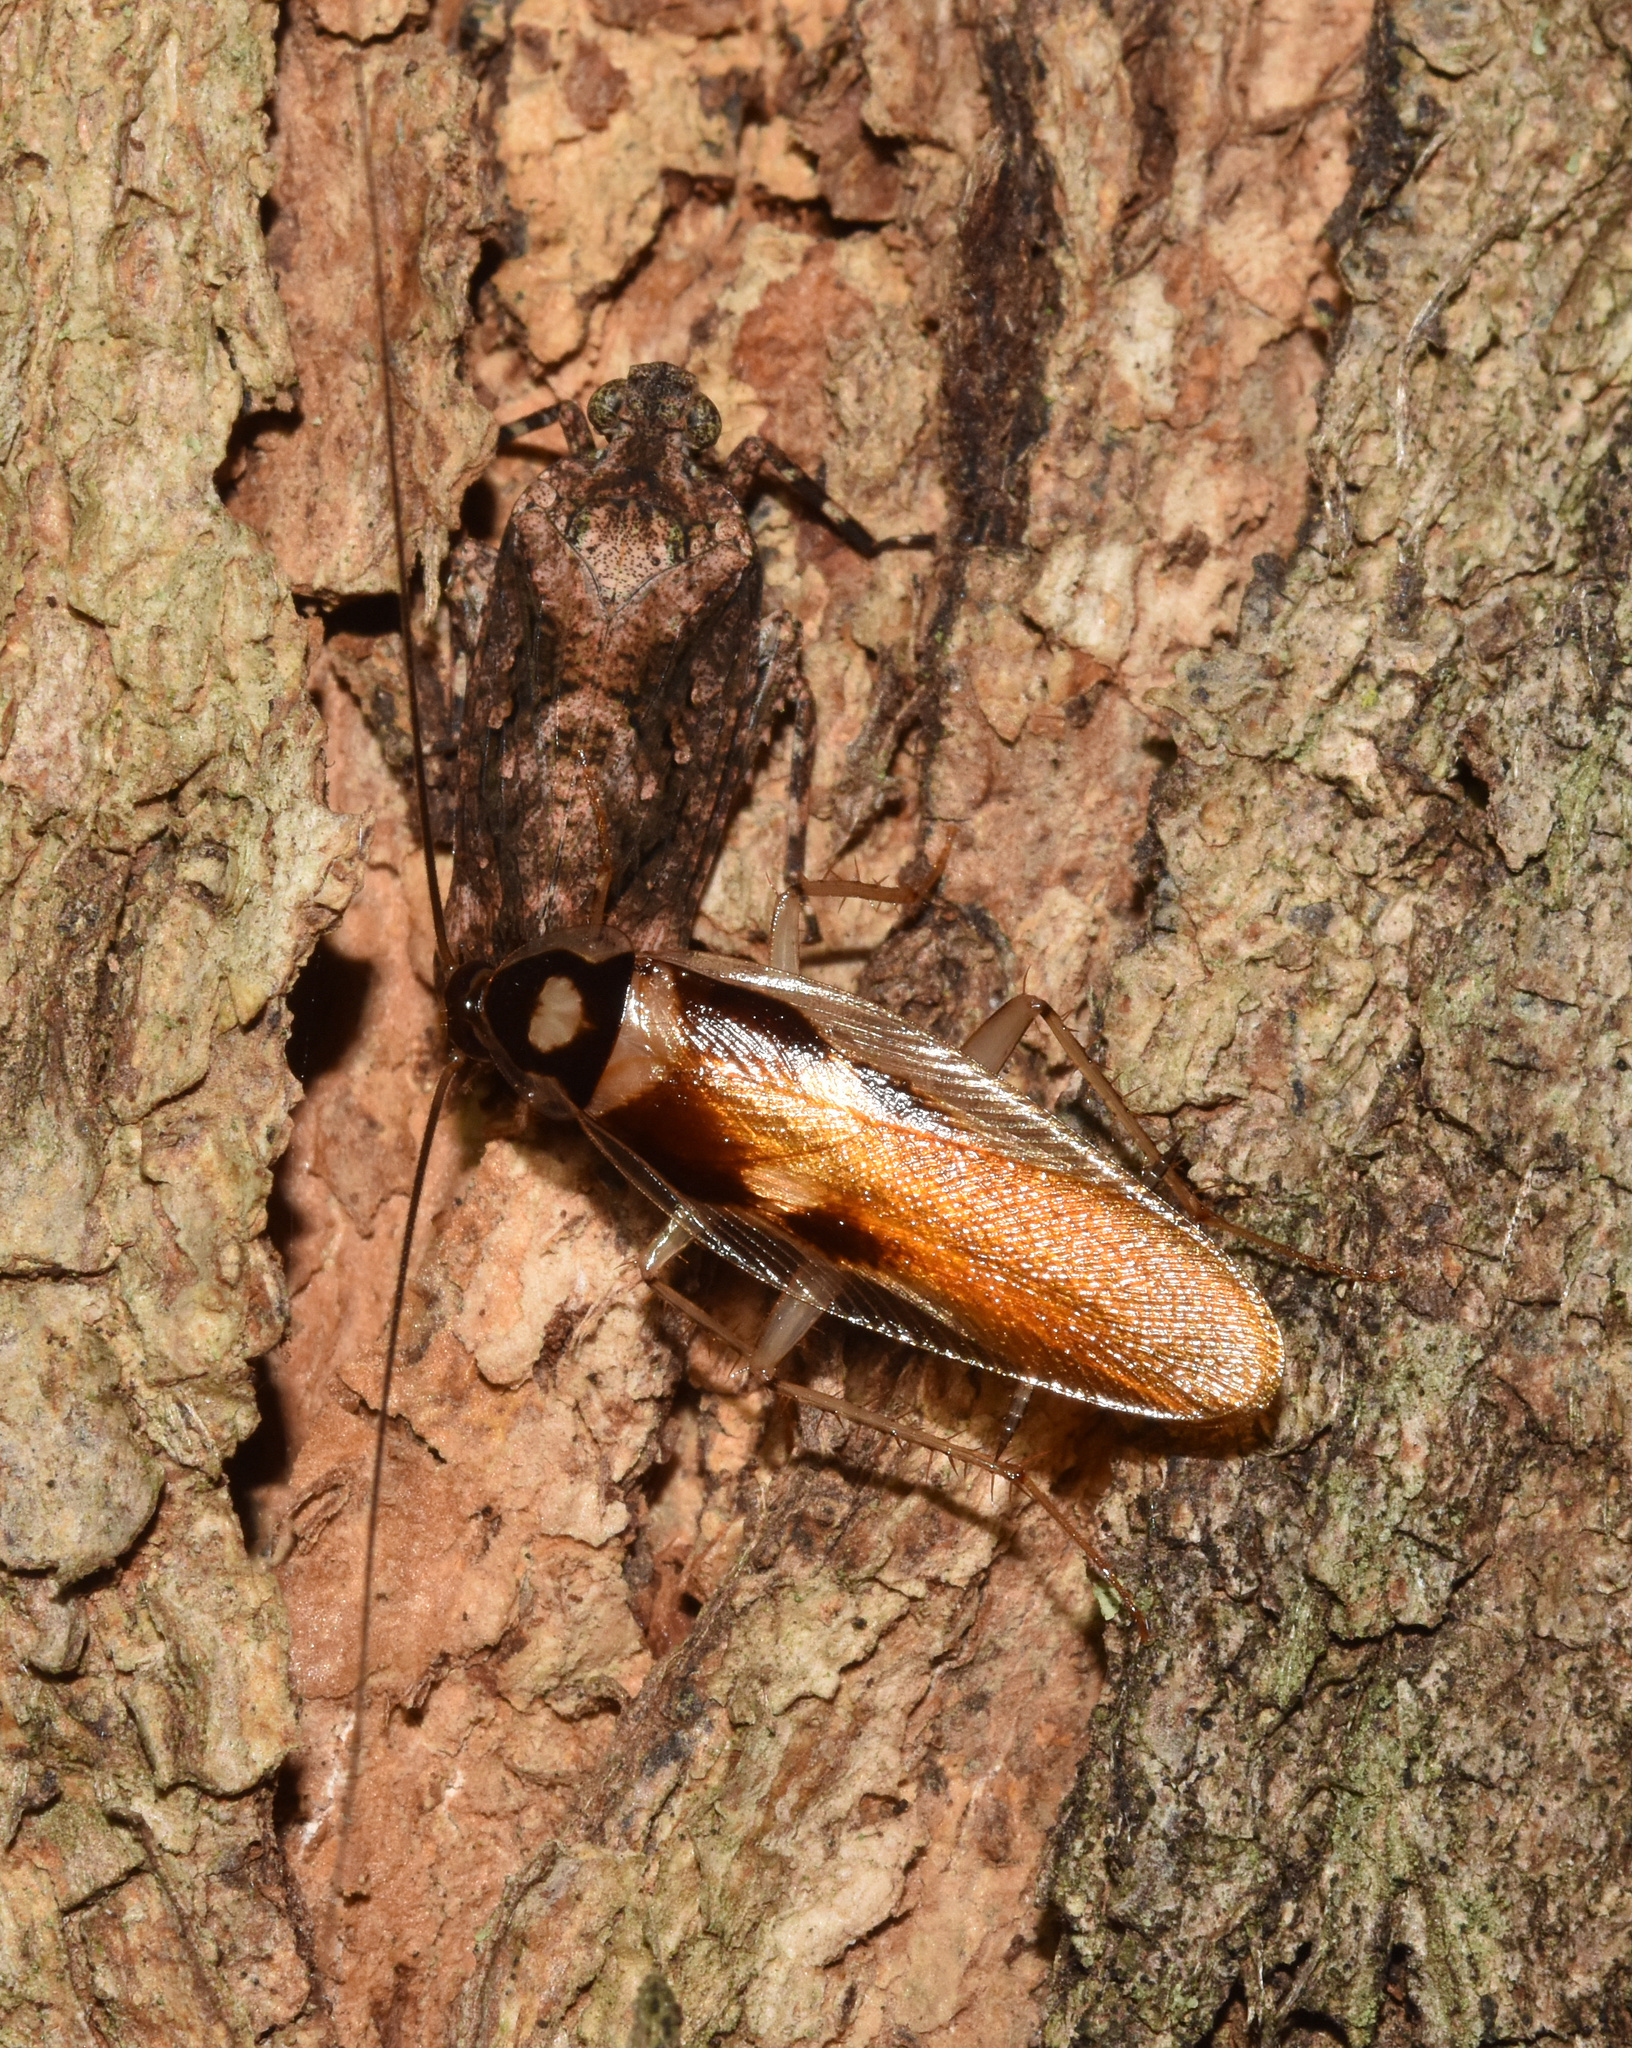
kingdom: Animalia
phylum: Arthropoda
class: Insecta
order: Blattodea
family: Ectobiidae
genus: Supella
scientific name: Supella dimidiata
